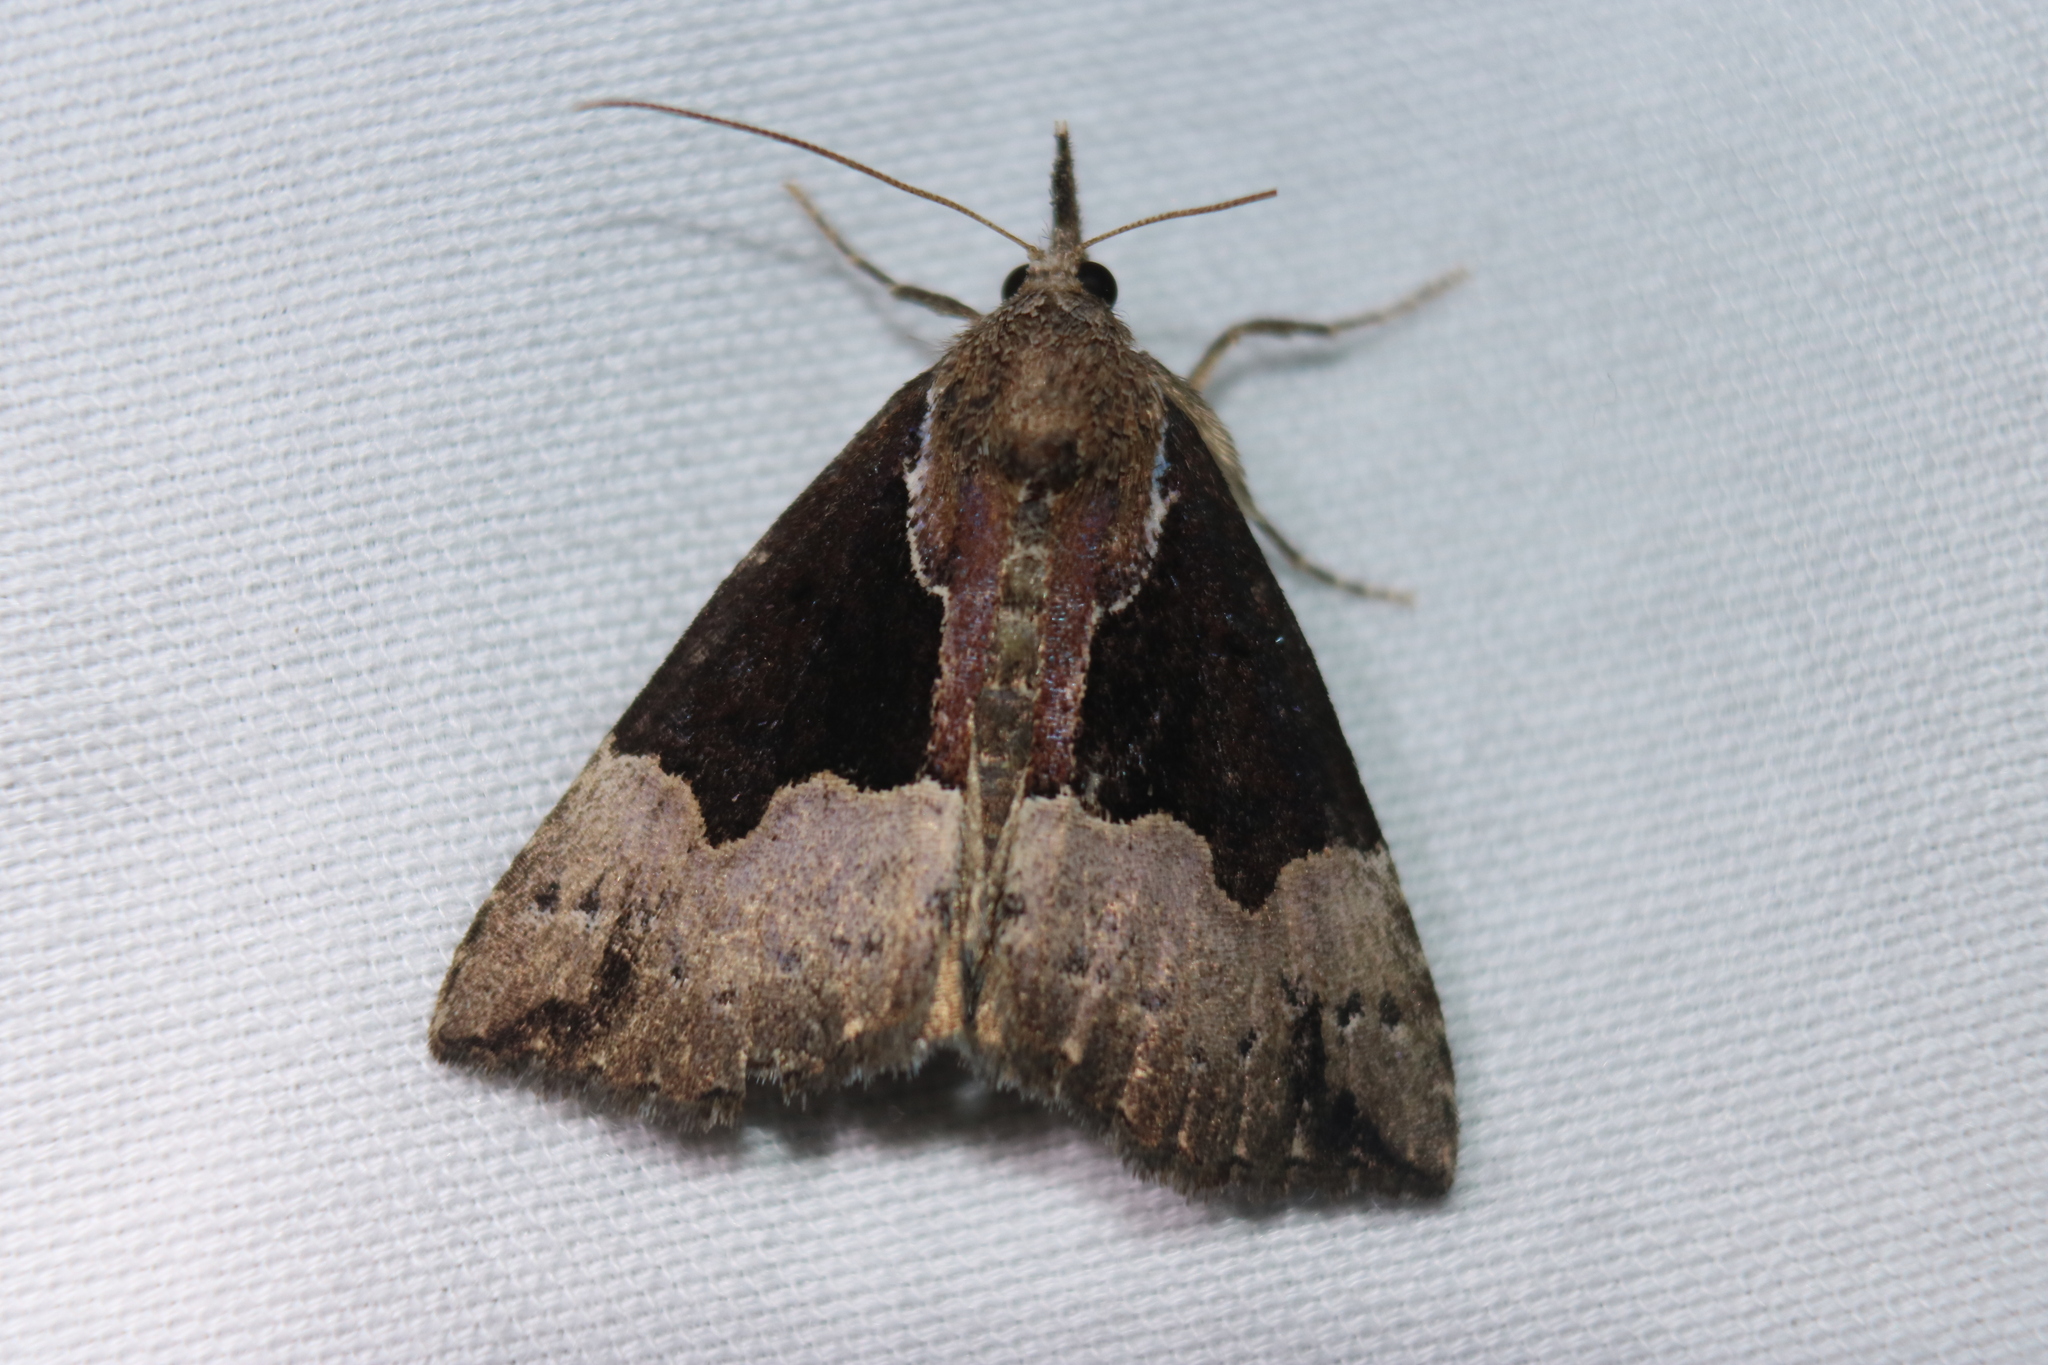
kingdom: Animalia
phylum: Arthropoda
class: Insecta
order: Lepidoptera
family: Erebidae
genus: Hypena
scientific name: Hypena bijugalis
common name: Dimorphic bomolocha moth
